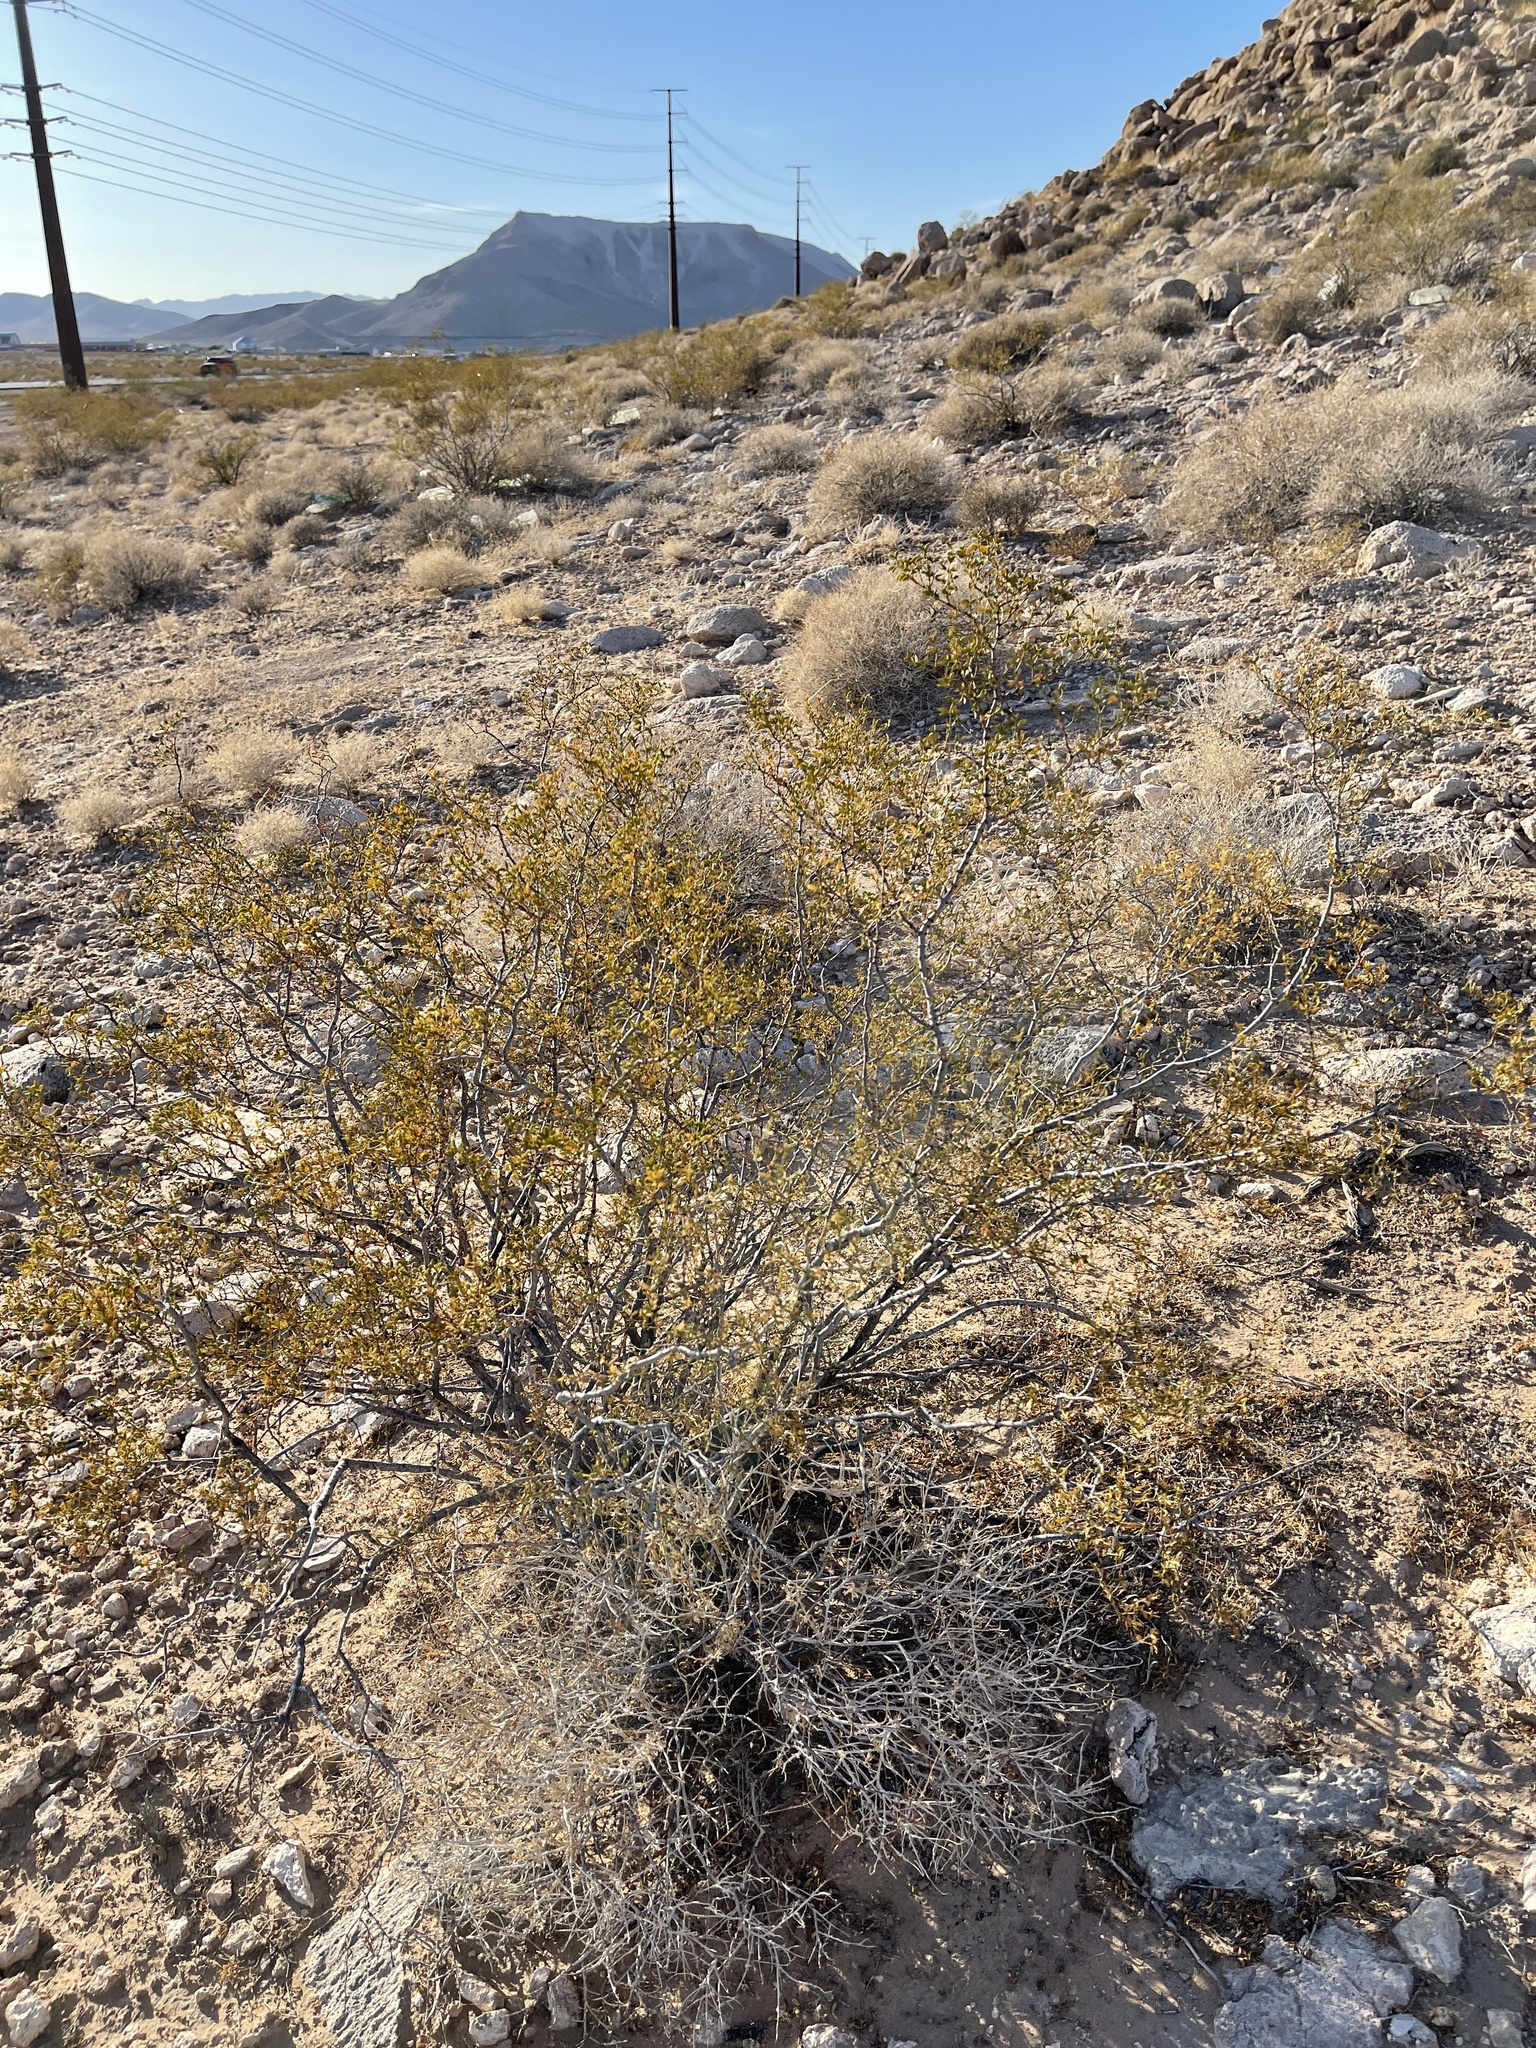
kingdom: Plantae
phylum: Tracheophyta
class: Magnoliopsida
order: Zygophyllales
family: Zygophyllaceae
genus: Larrea
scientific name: Larrea tridentata
